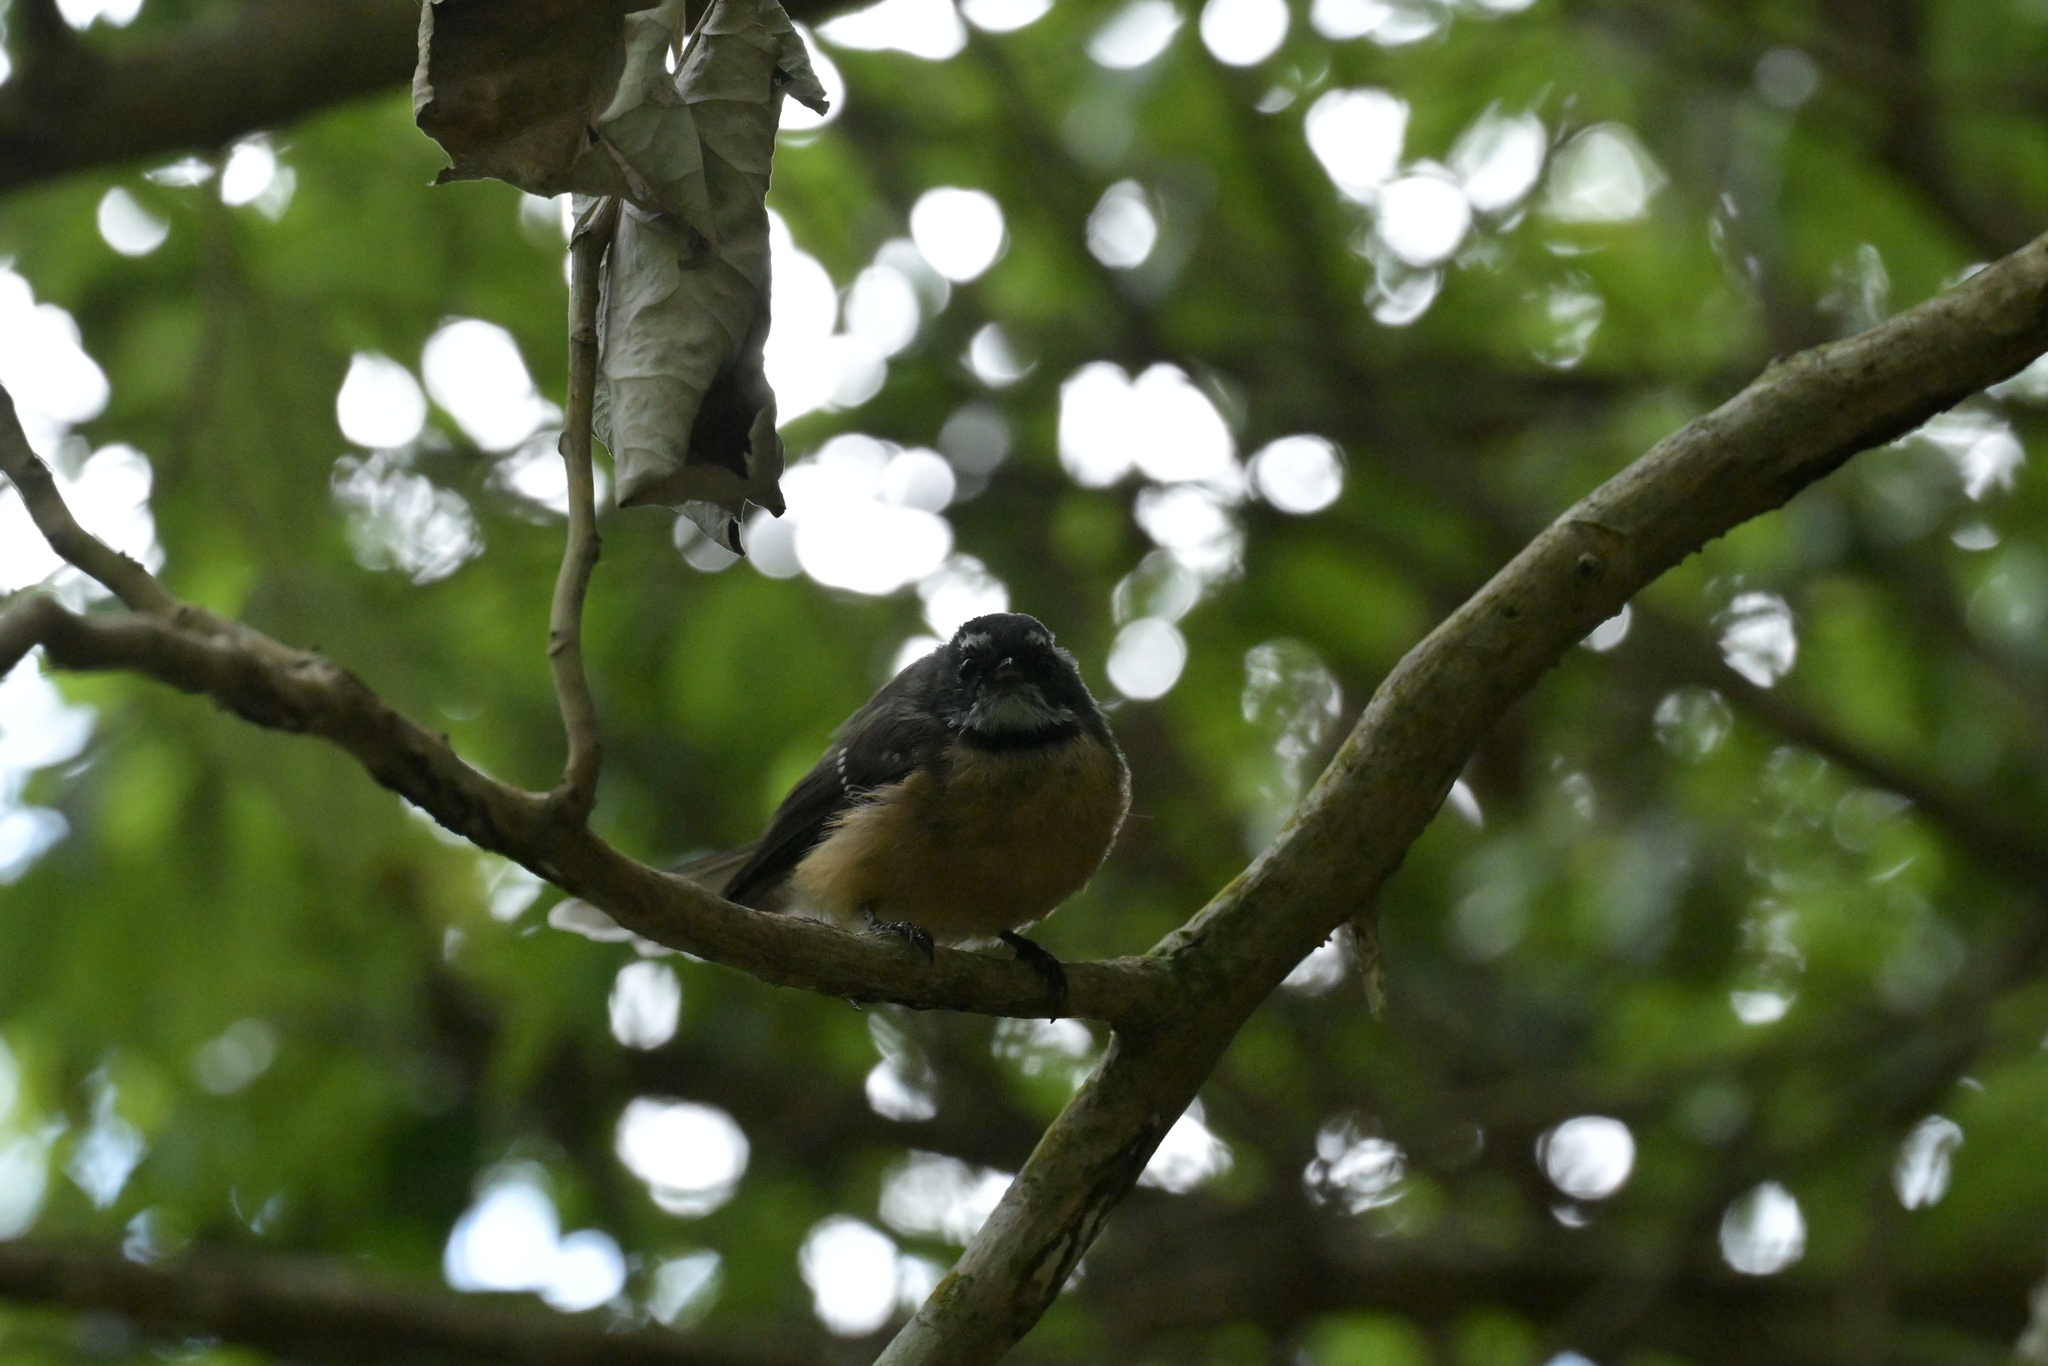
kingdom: Animalia
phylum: Chordata
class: Aves
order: Passeriformes
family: Rhipiduridae
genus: Rhipidura
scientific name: Rhipidura fuliginosa
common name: New zealand fantail
